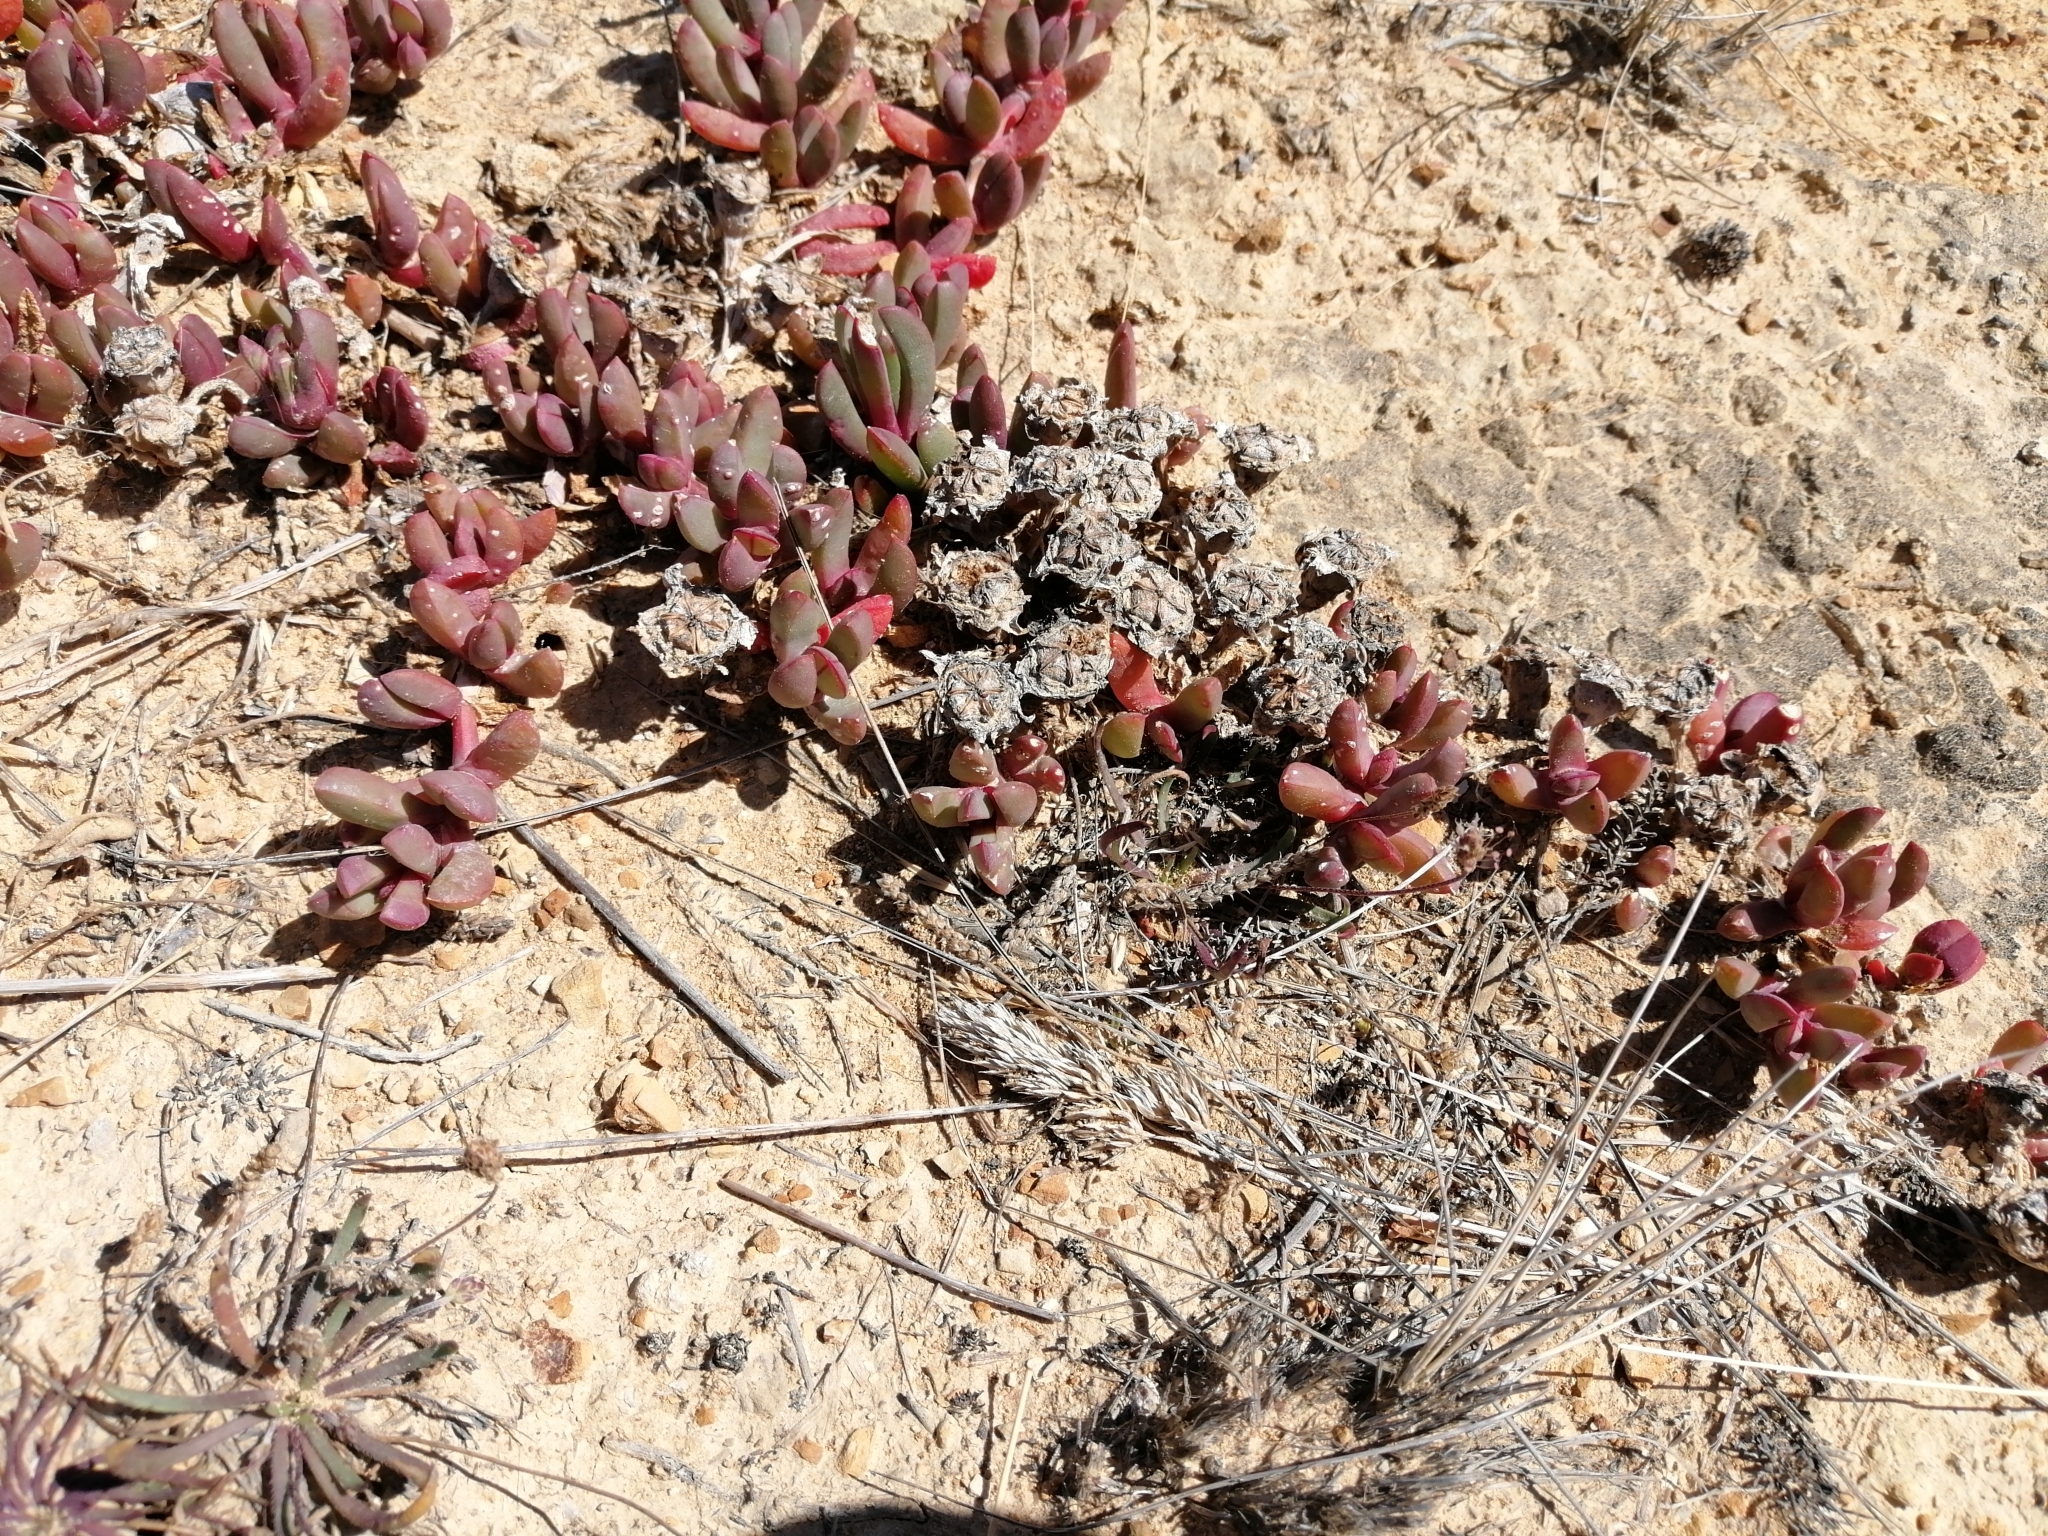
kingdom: Plantae
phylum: Tracheophyta
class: Magnoliopsida
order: Caryophyllales
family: Aizoaceae
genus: Disphyma
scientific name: Disphyma australe
